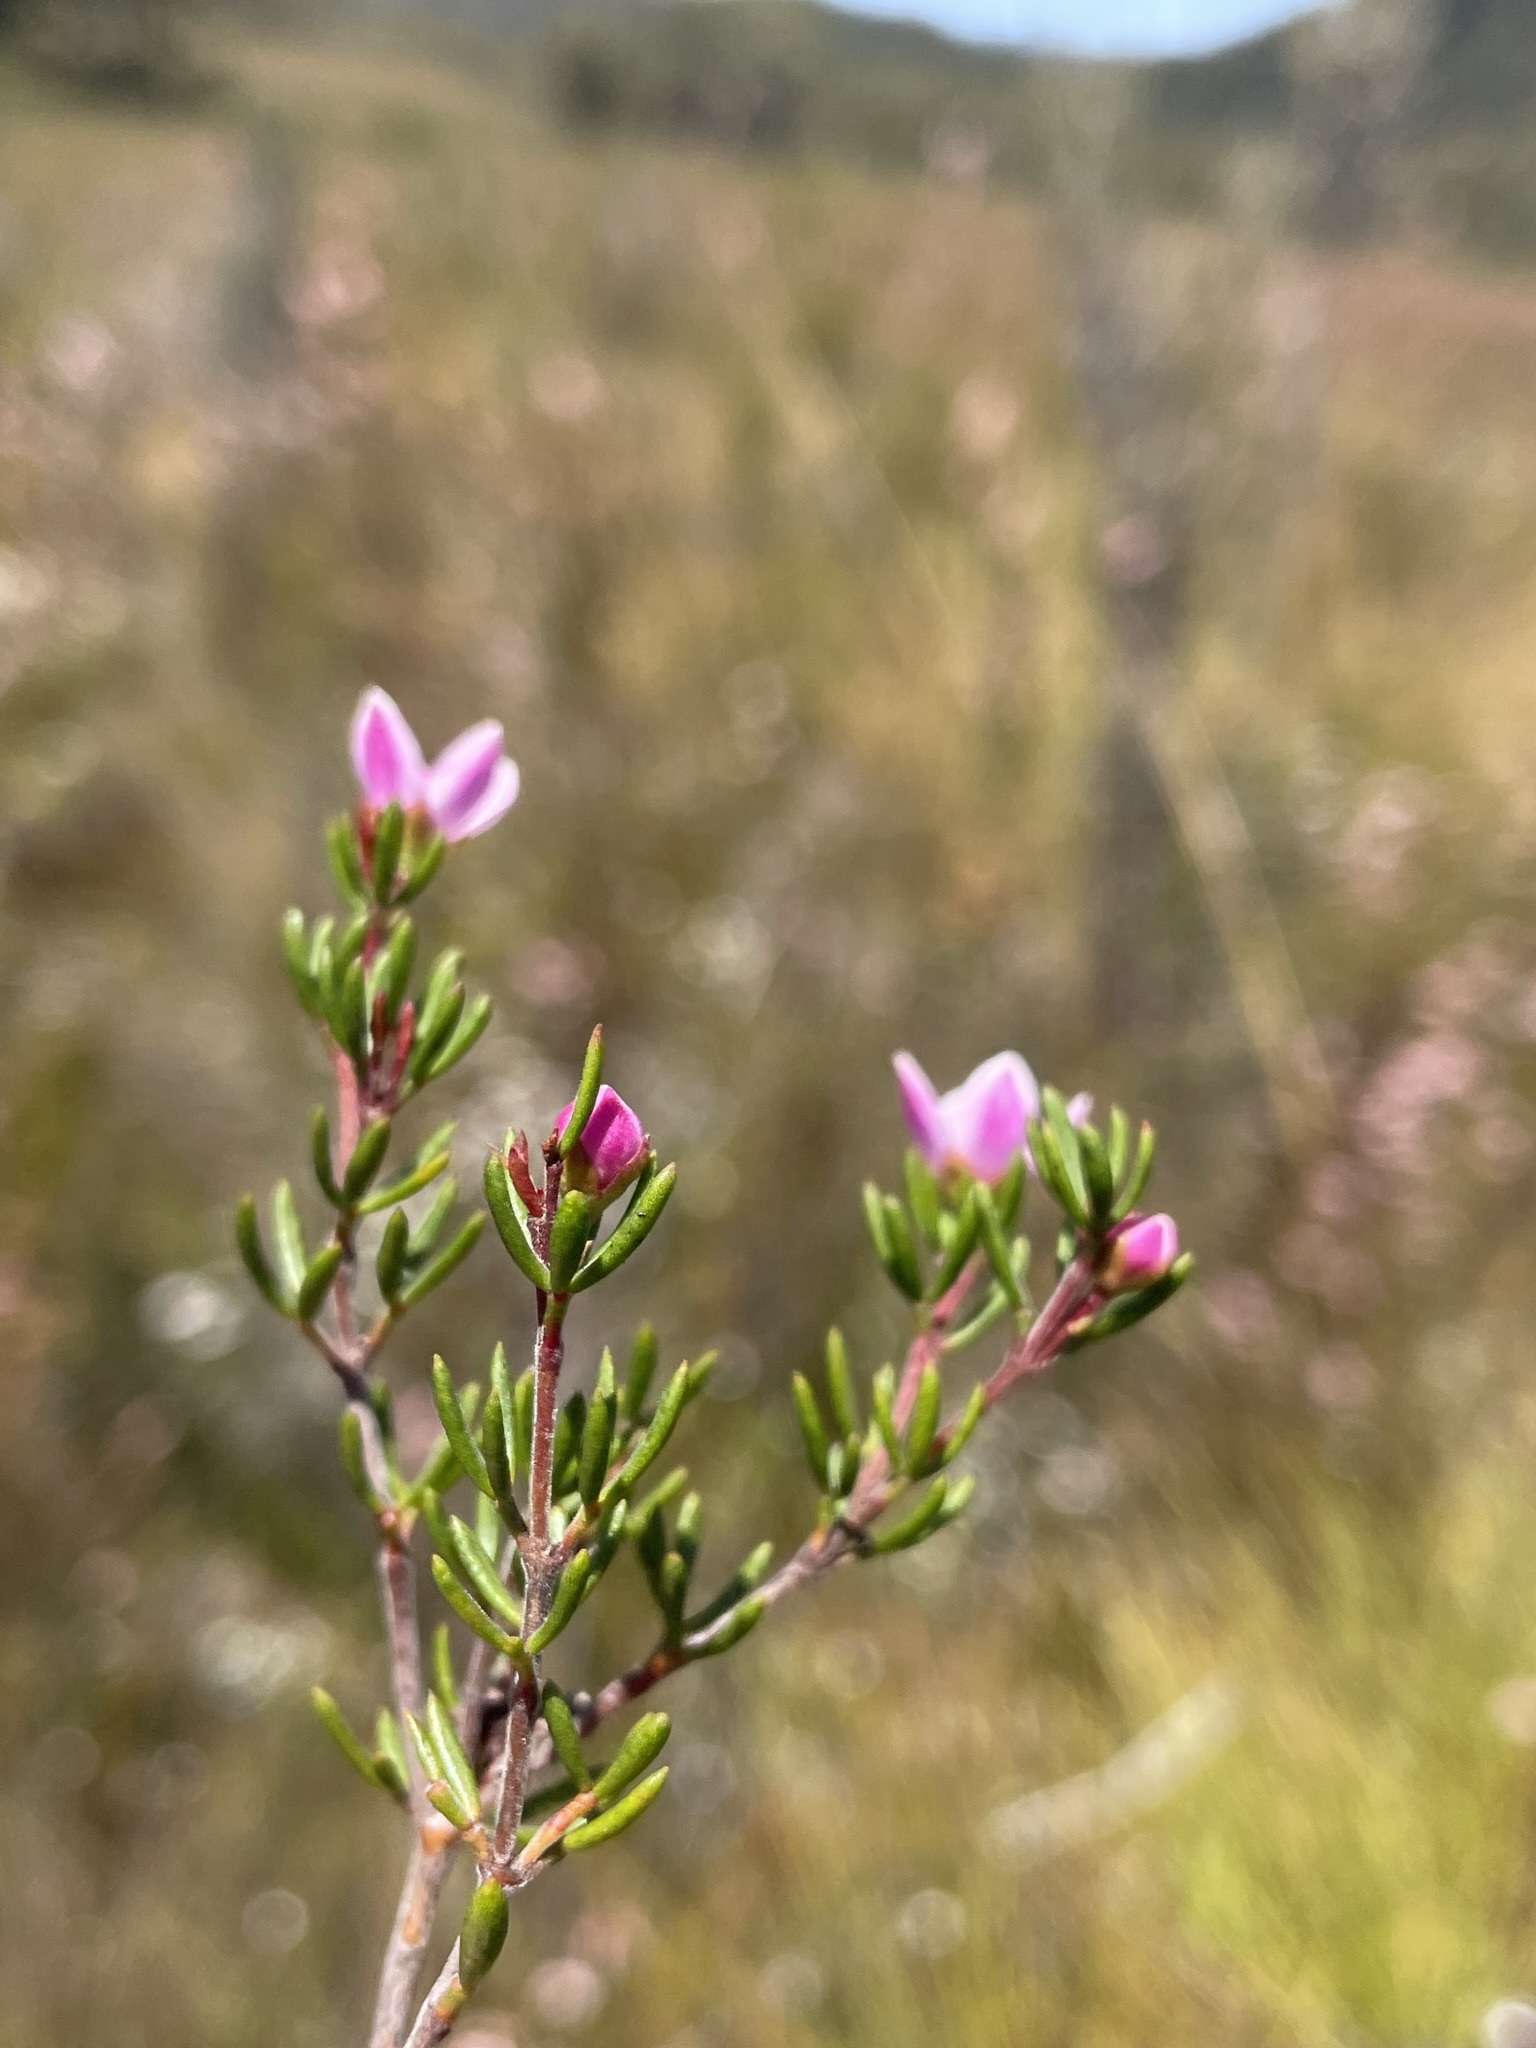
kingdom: Plantae
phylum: Tracheophyta
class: Magnoliopsida
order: Sapindales
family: Rutaceae
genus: Boronia
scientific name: Boronia elisabethiae
